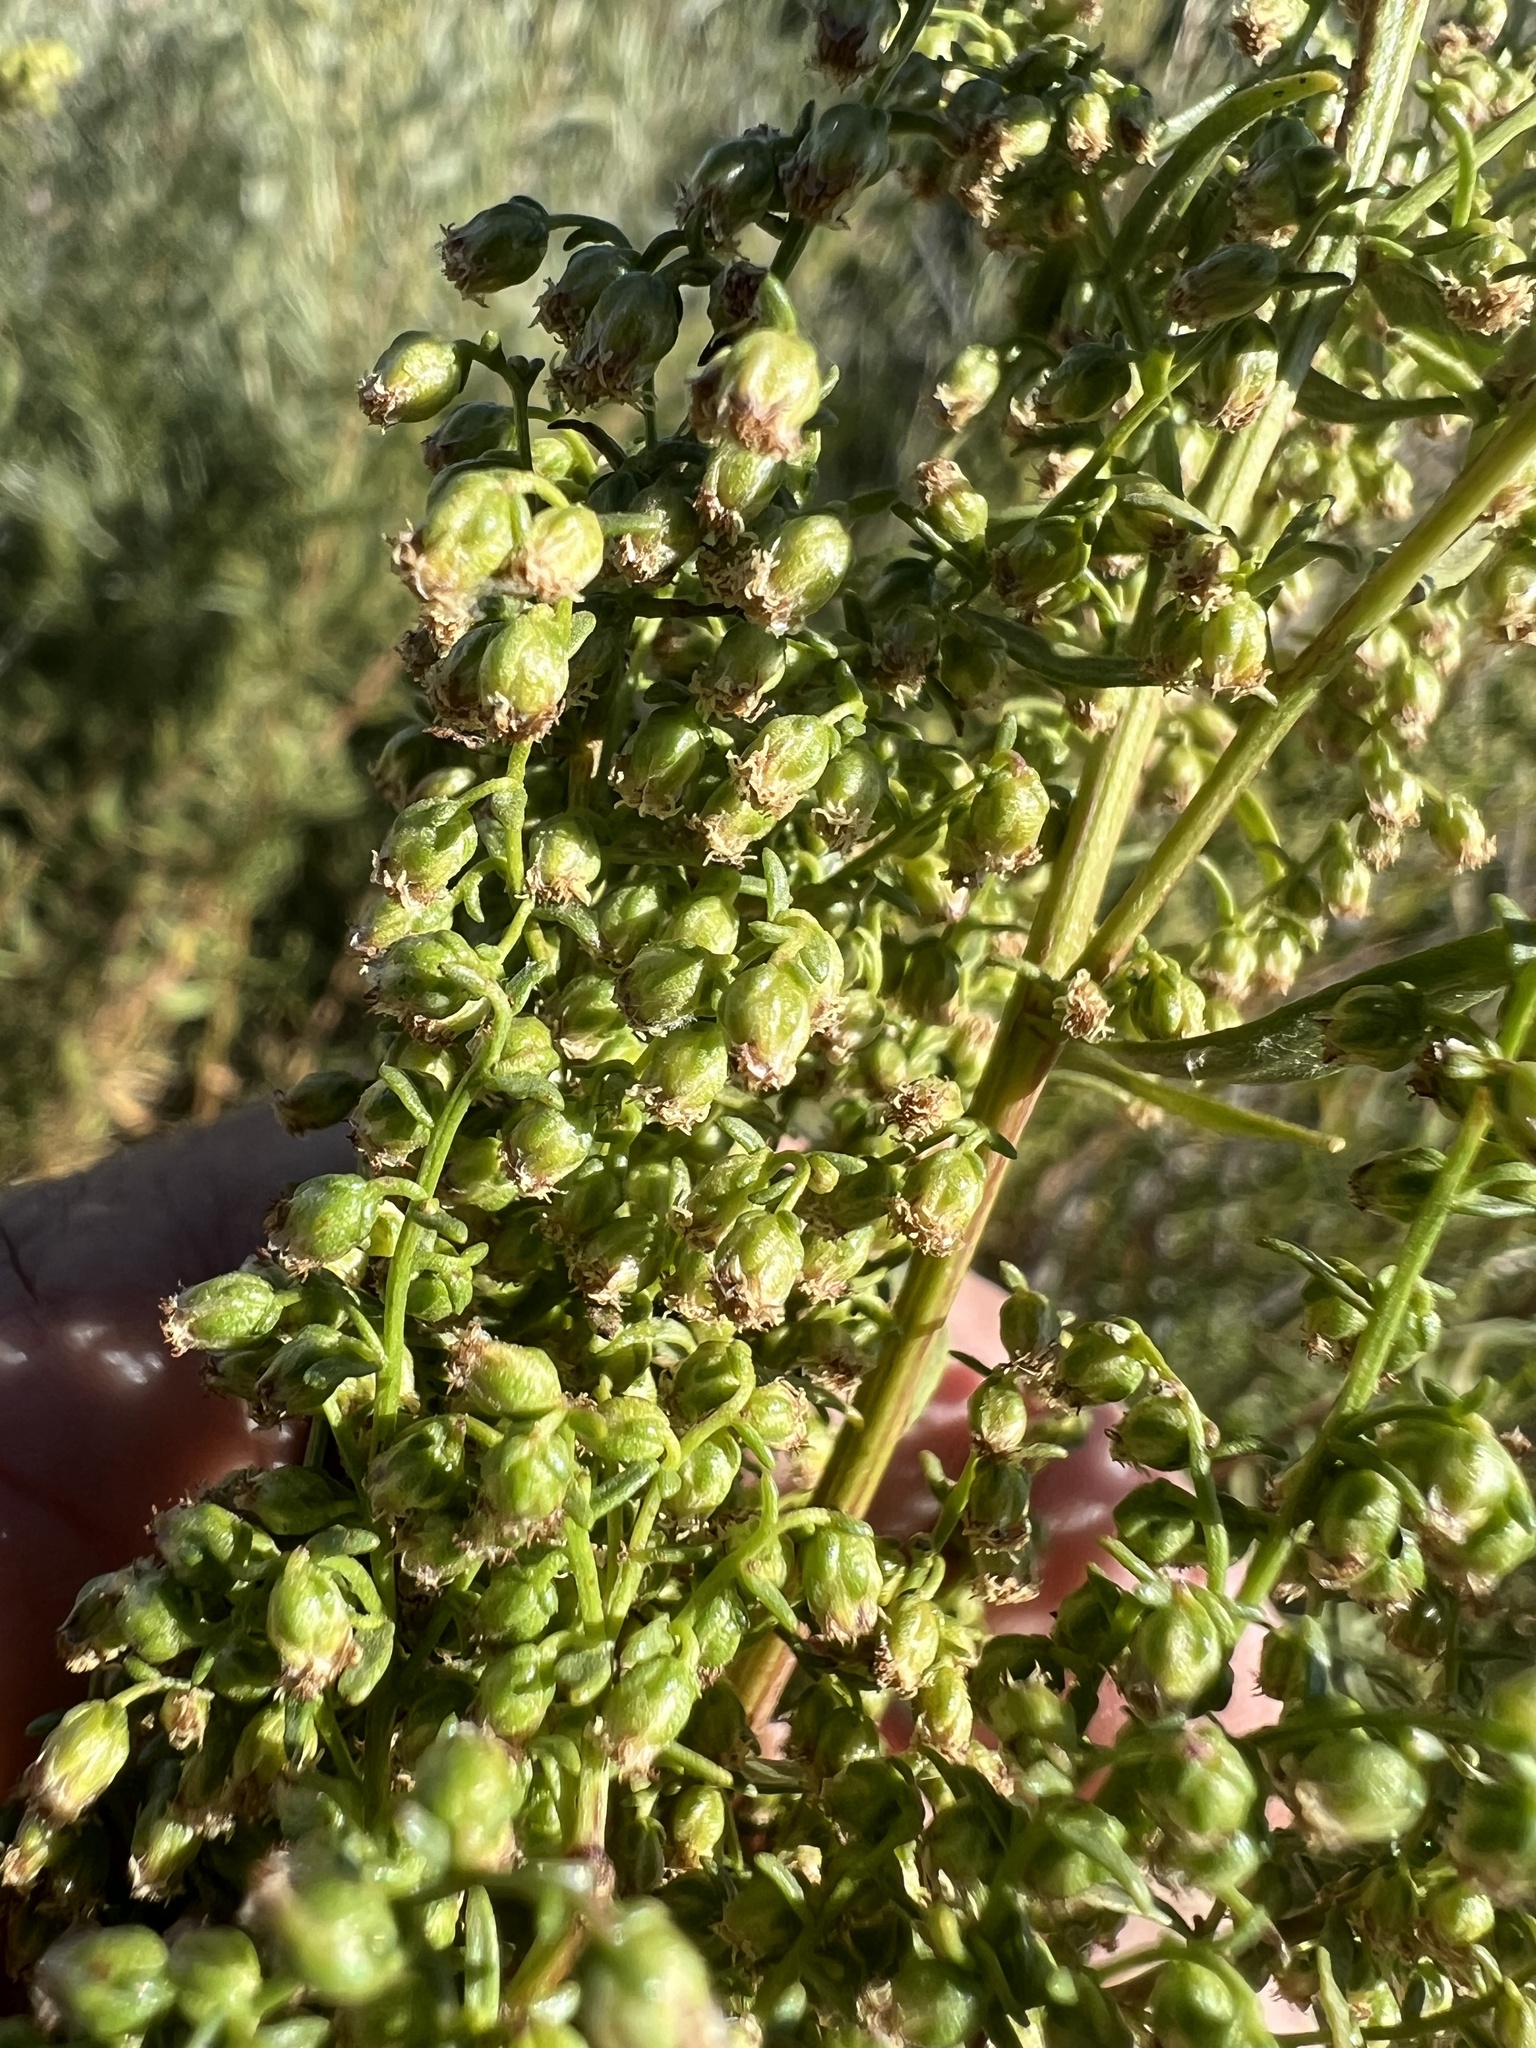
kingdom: Plantae
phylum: Tracheophyta
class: Magnoliopsida
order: Asterales
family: Asteraceae
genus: Artemisia
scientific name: Artemisia dracunculus
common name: Tarragon
